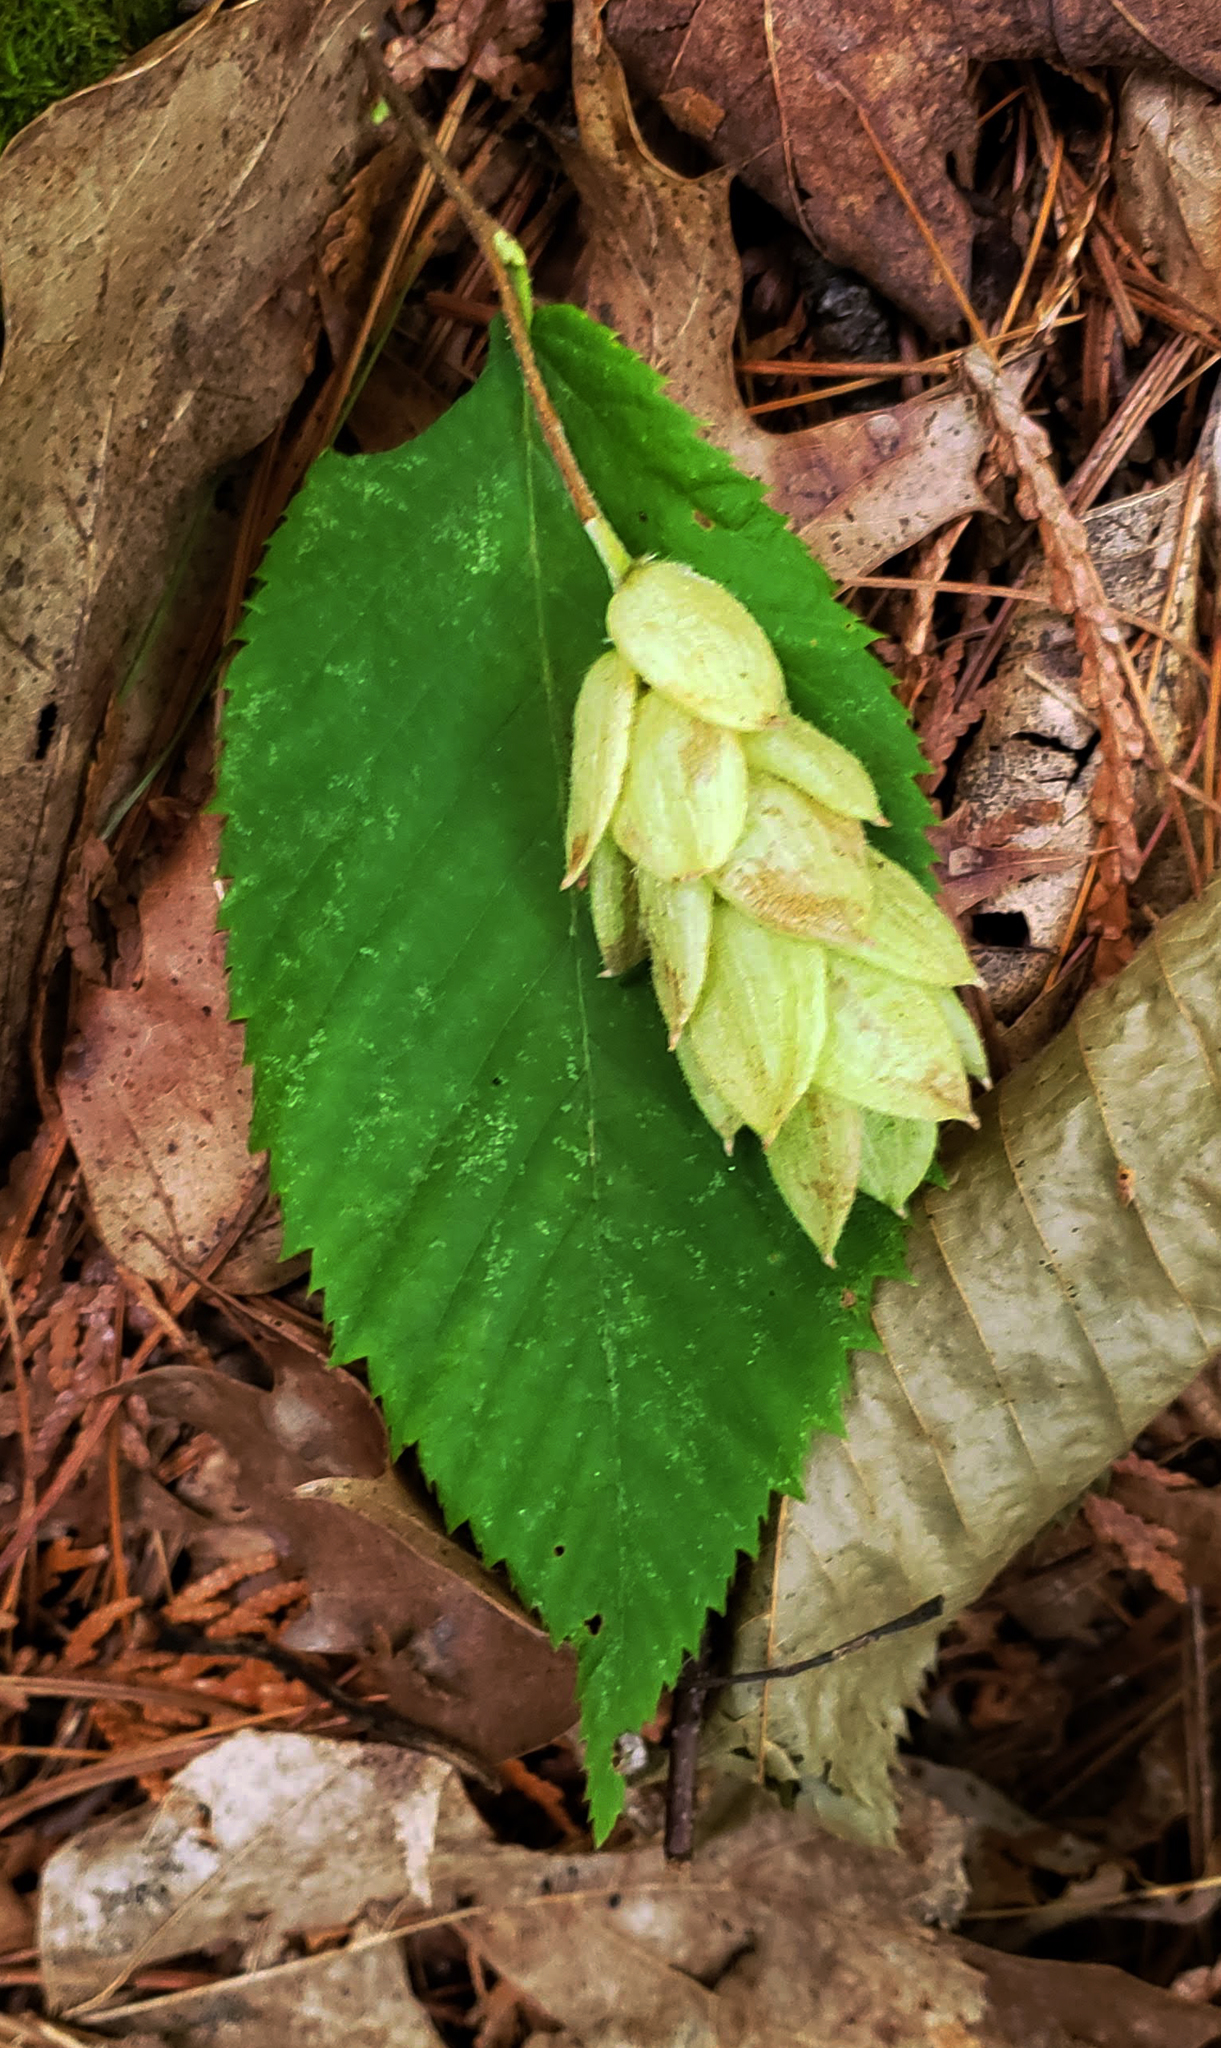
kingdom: Plantae
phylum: Tracheophyta
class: Magnoliopsida
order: Fagales
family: Betulaceae
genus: Ostrya
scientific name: Ostrya virginiana
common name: Ironwood
